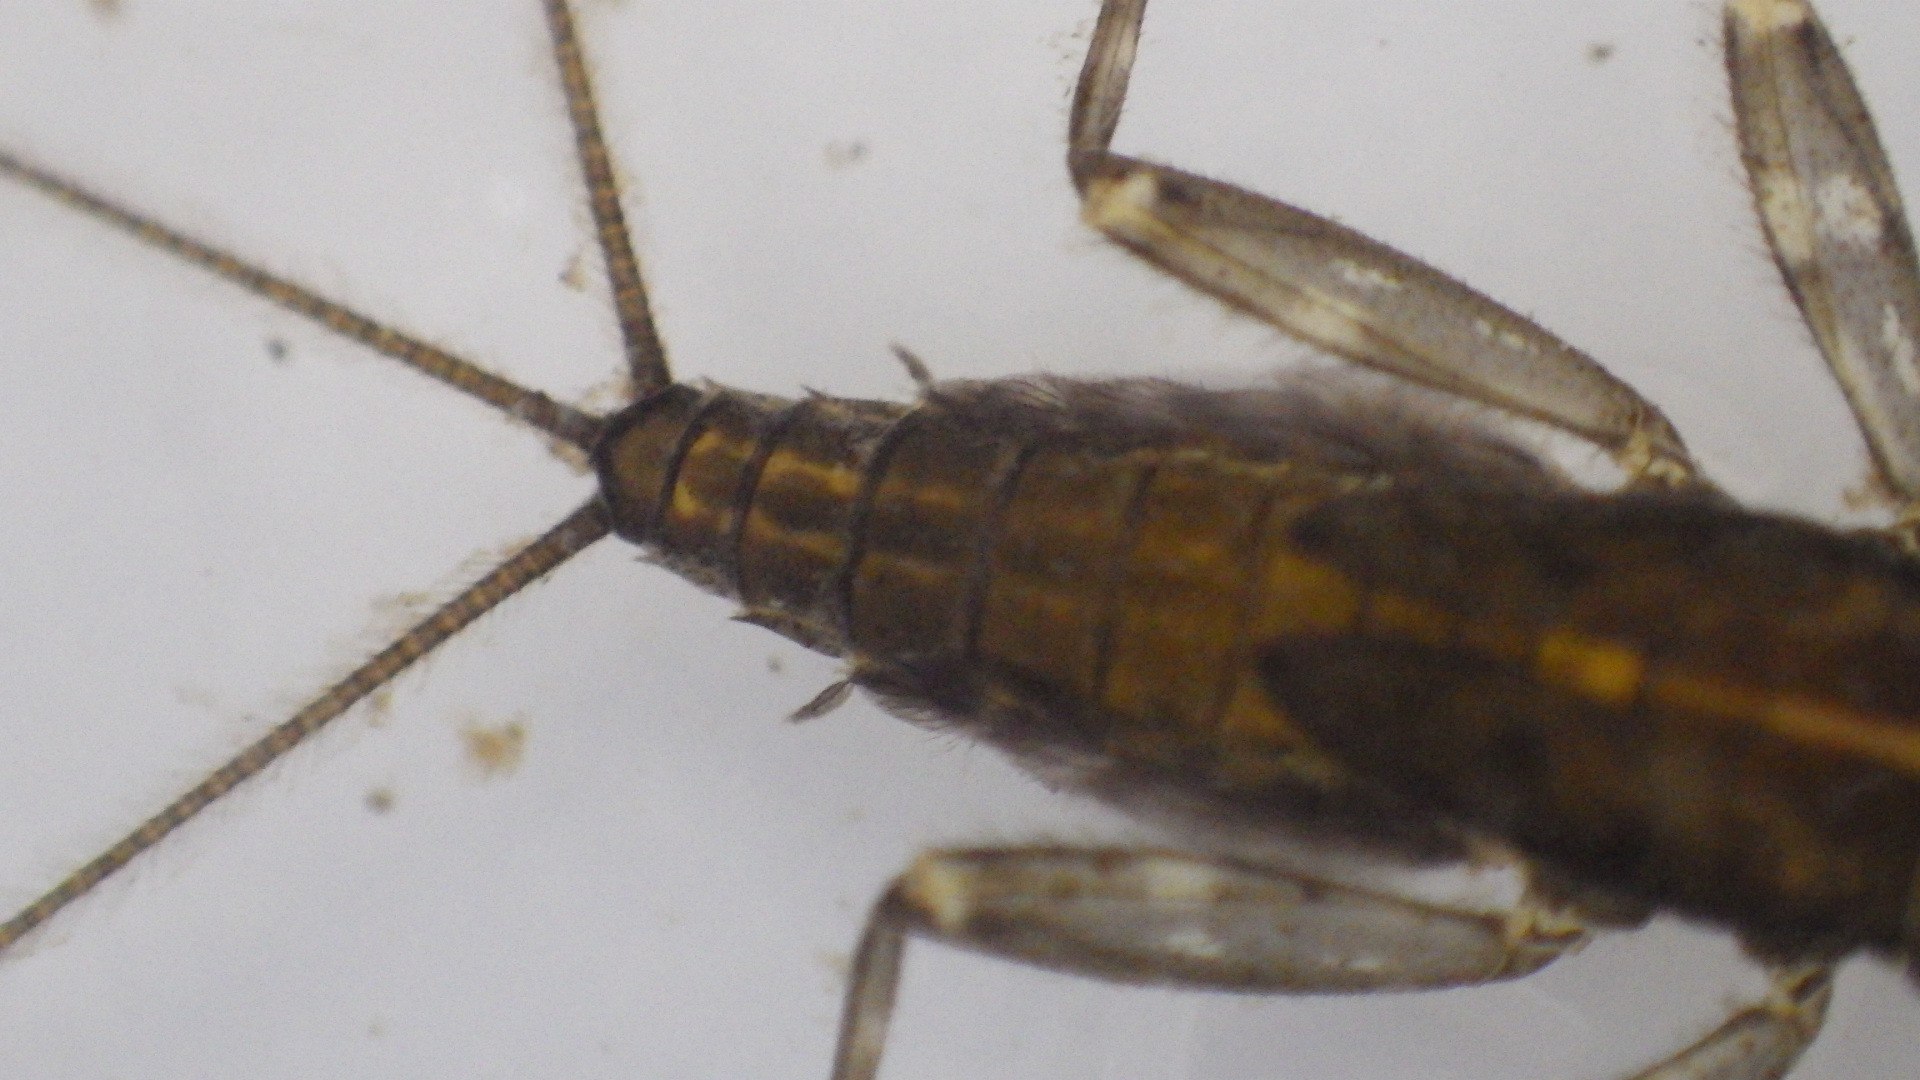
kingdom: Animalia
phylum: Arthropoda
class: Insecta
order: Ephemeroptera
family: Heptageniidae
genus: Stenacron
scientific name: Stenacron interpunctatum
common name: Orange cahill
